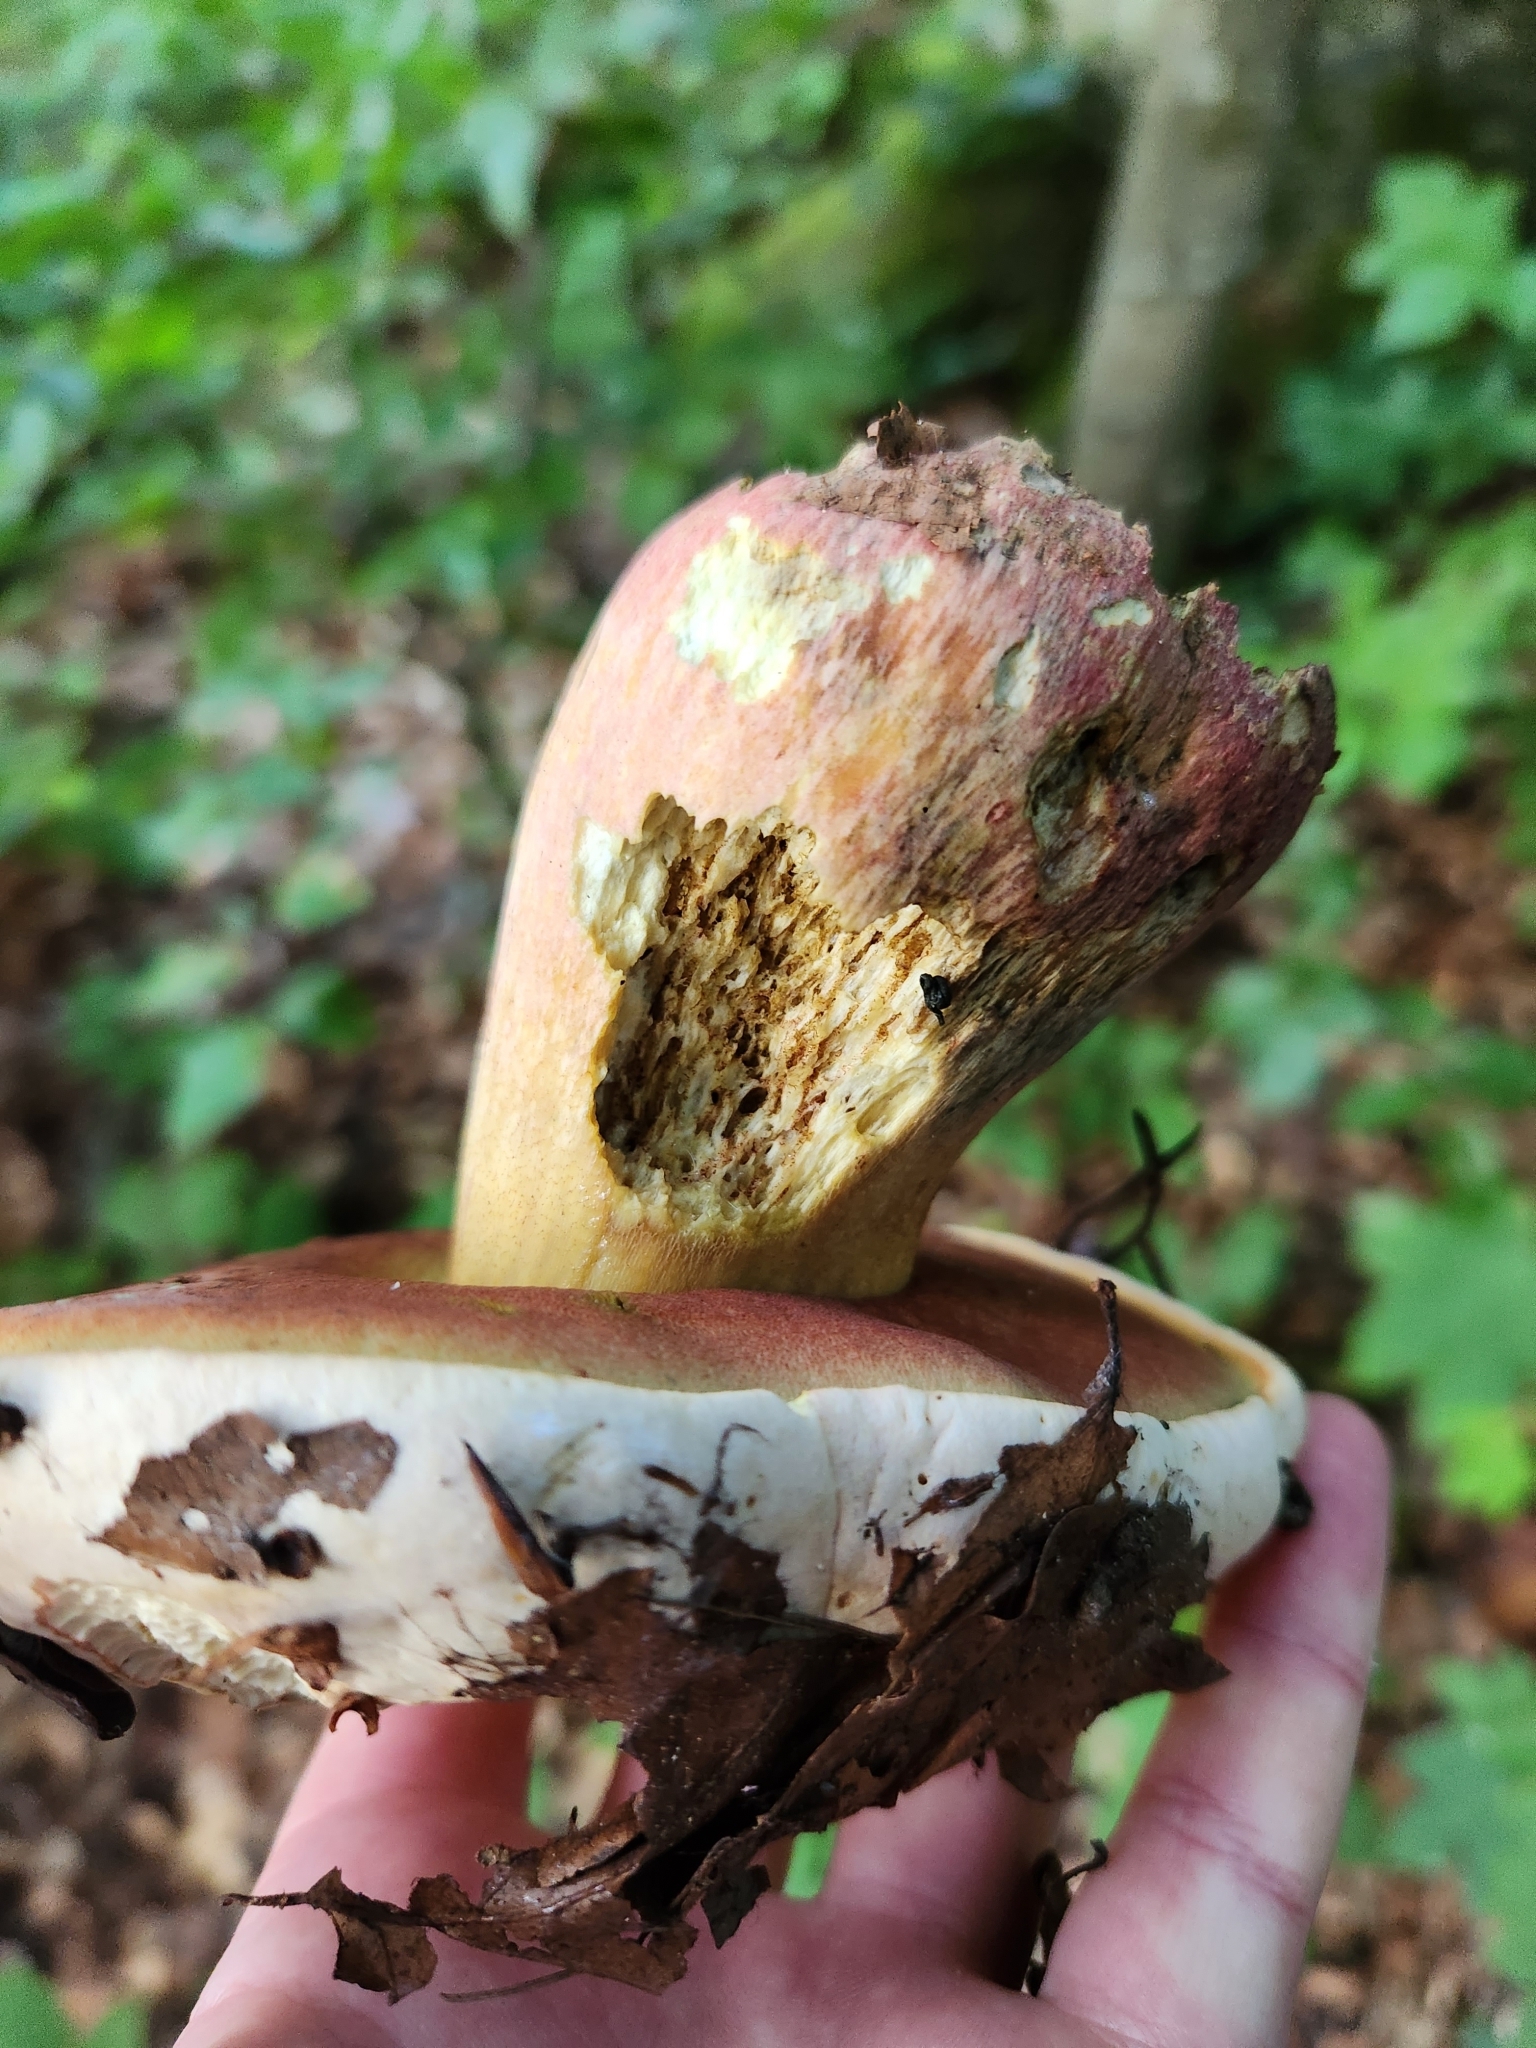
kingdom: Fungi
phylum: Basidiomycota
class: Agaricomycetes
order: Boletales
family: Boletaceae
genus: Rubroboletus
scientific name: Rubroboletus satanas
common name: Devil's bolete
